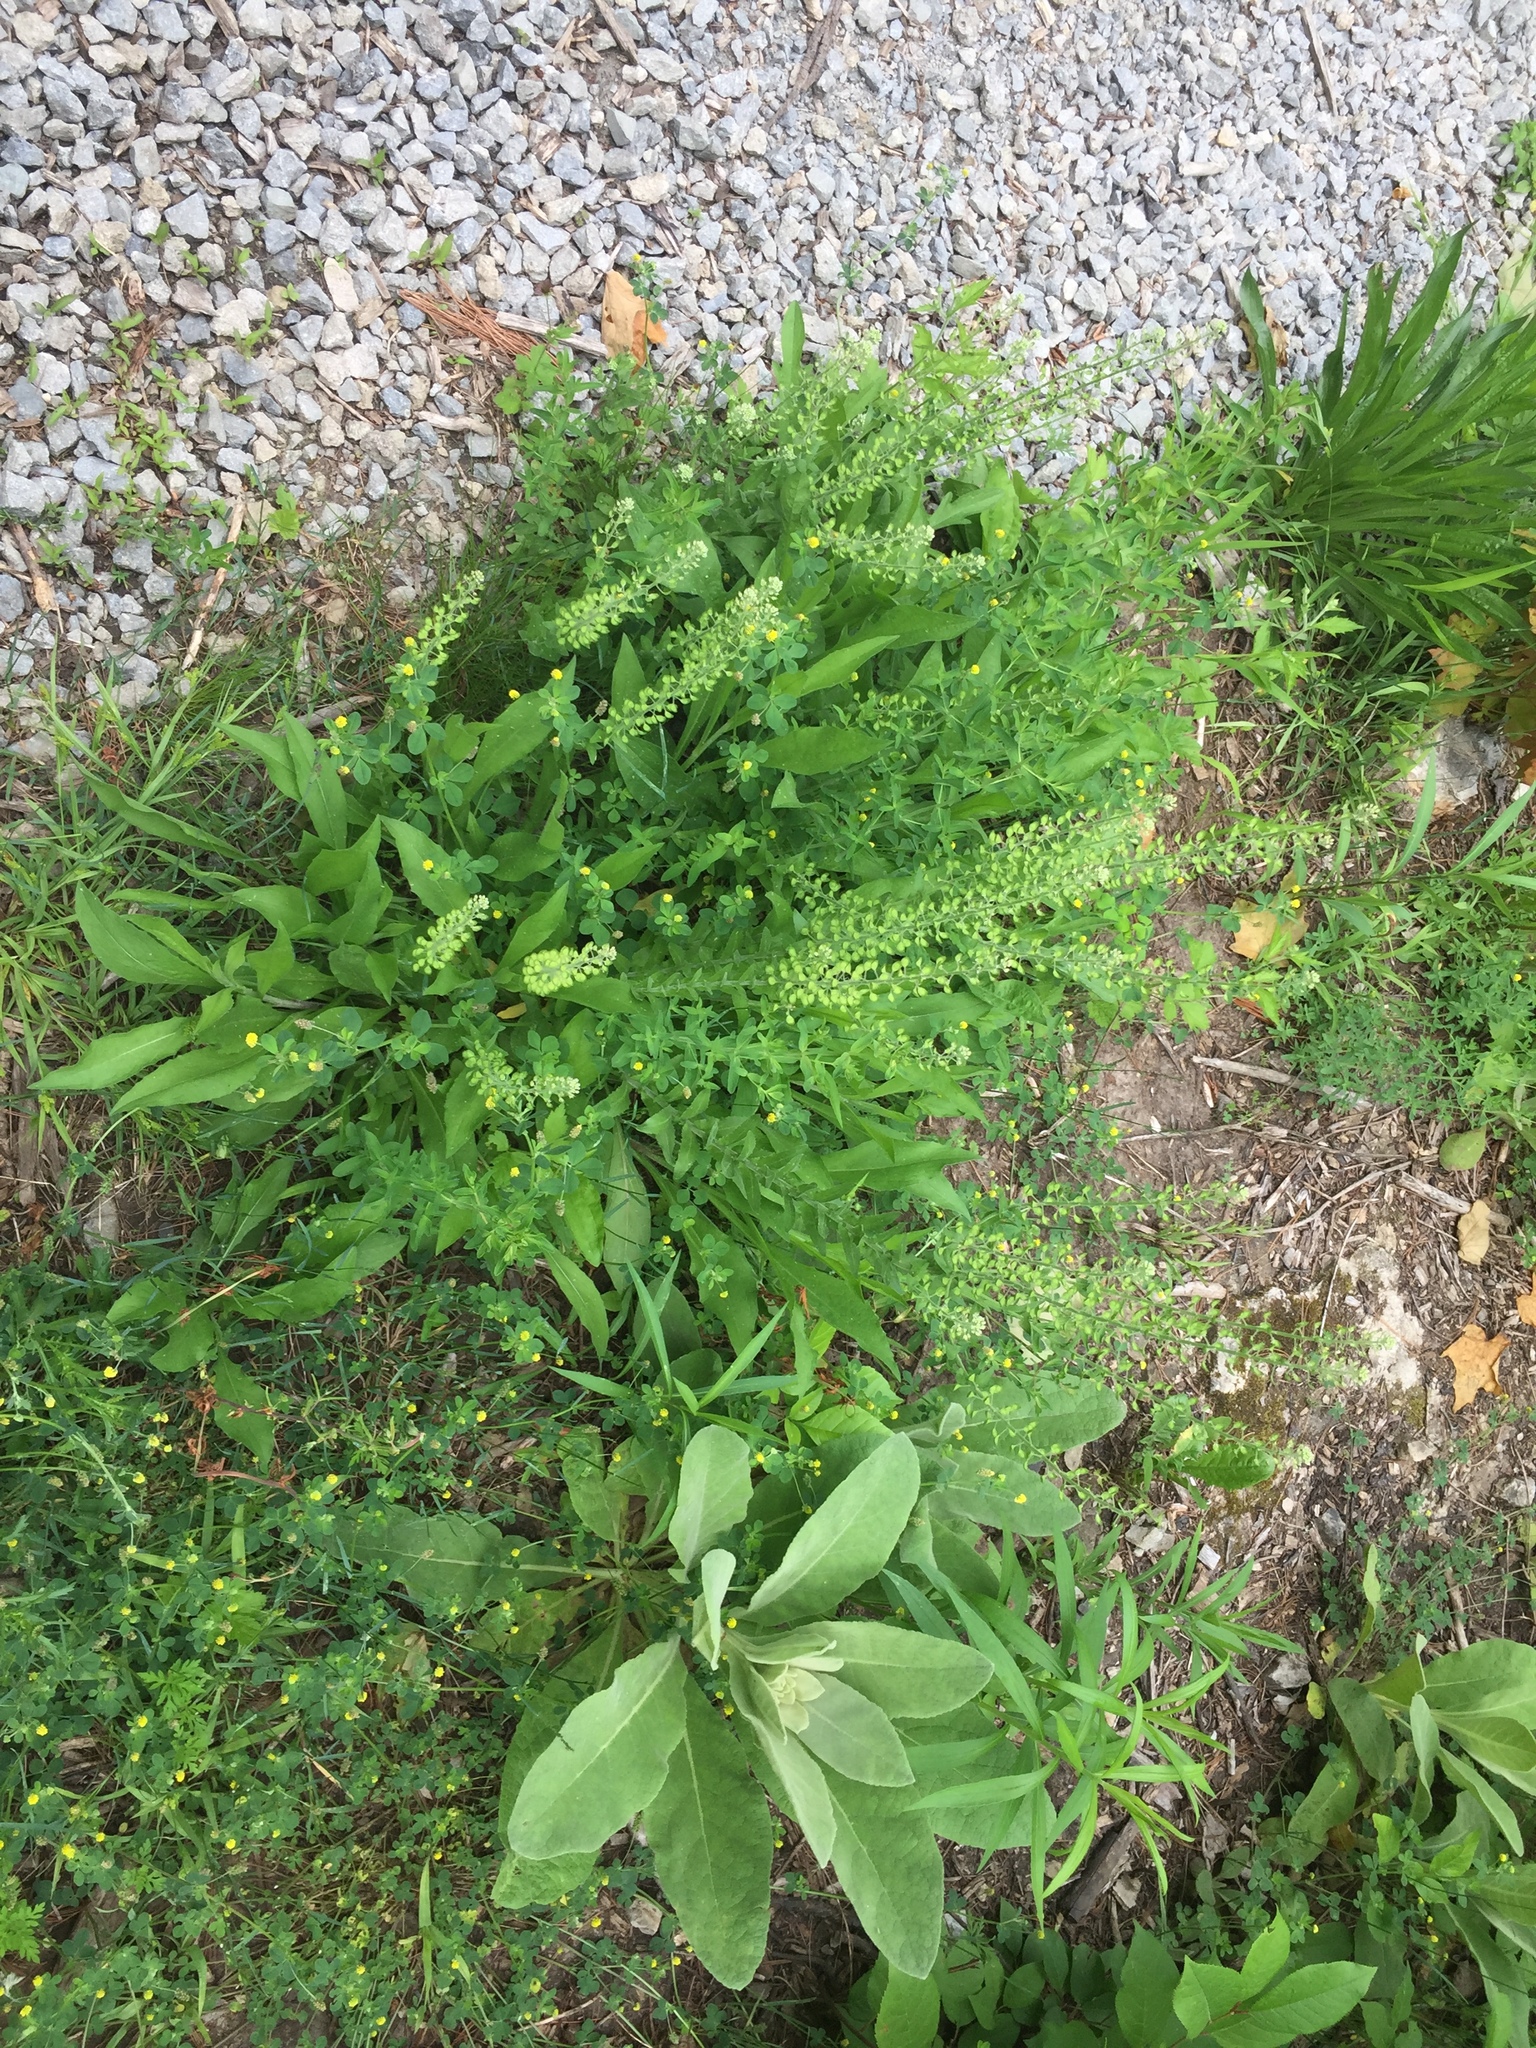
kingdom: Plantae
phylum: Tracheophyta
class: Magnoliopsida
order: Brassicales
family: Brassicaceae
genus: Lepidium
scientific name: Lepidium campestre
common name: Field pepperwort
